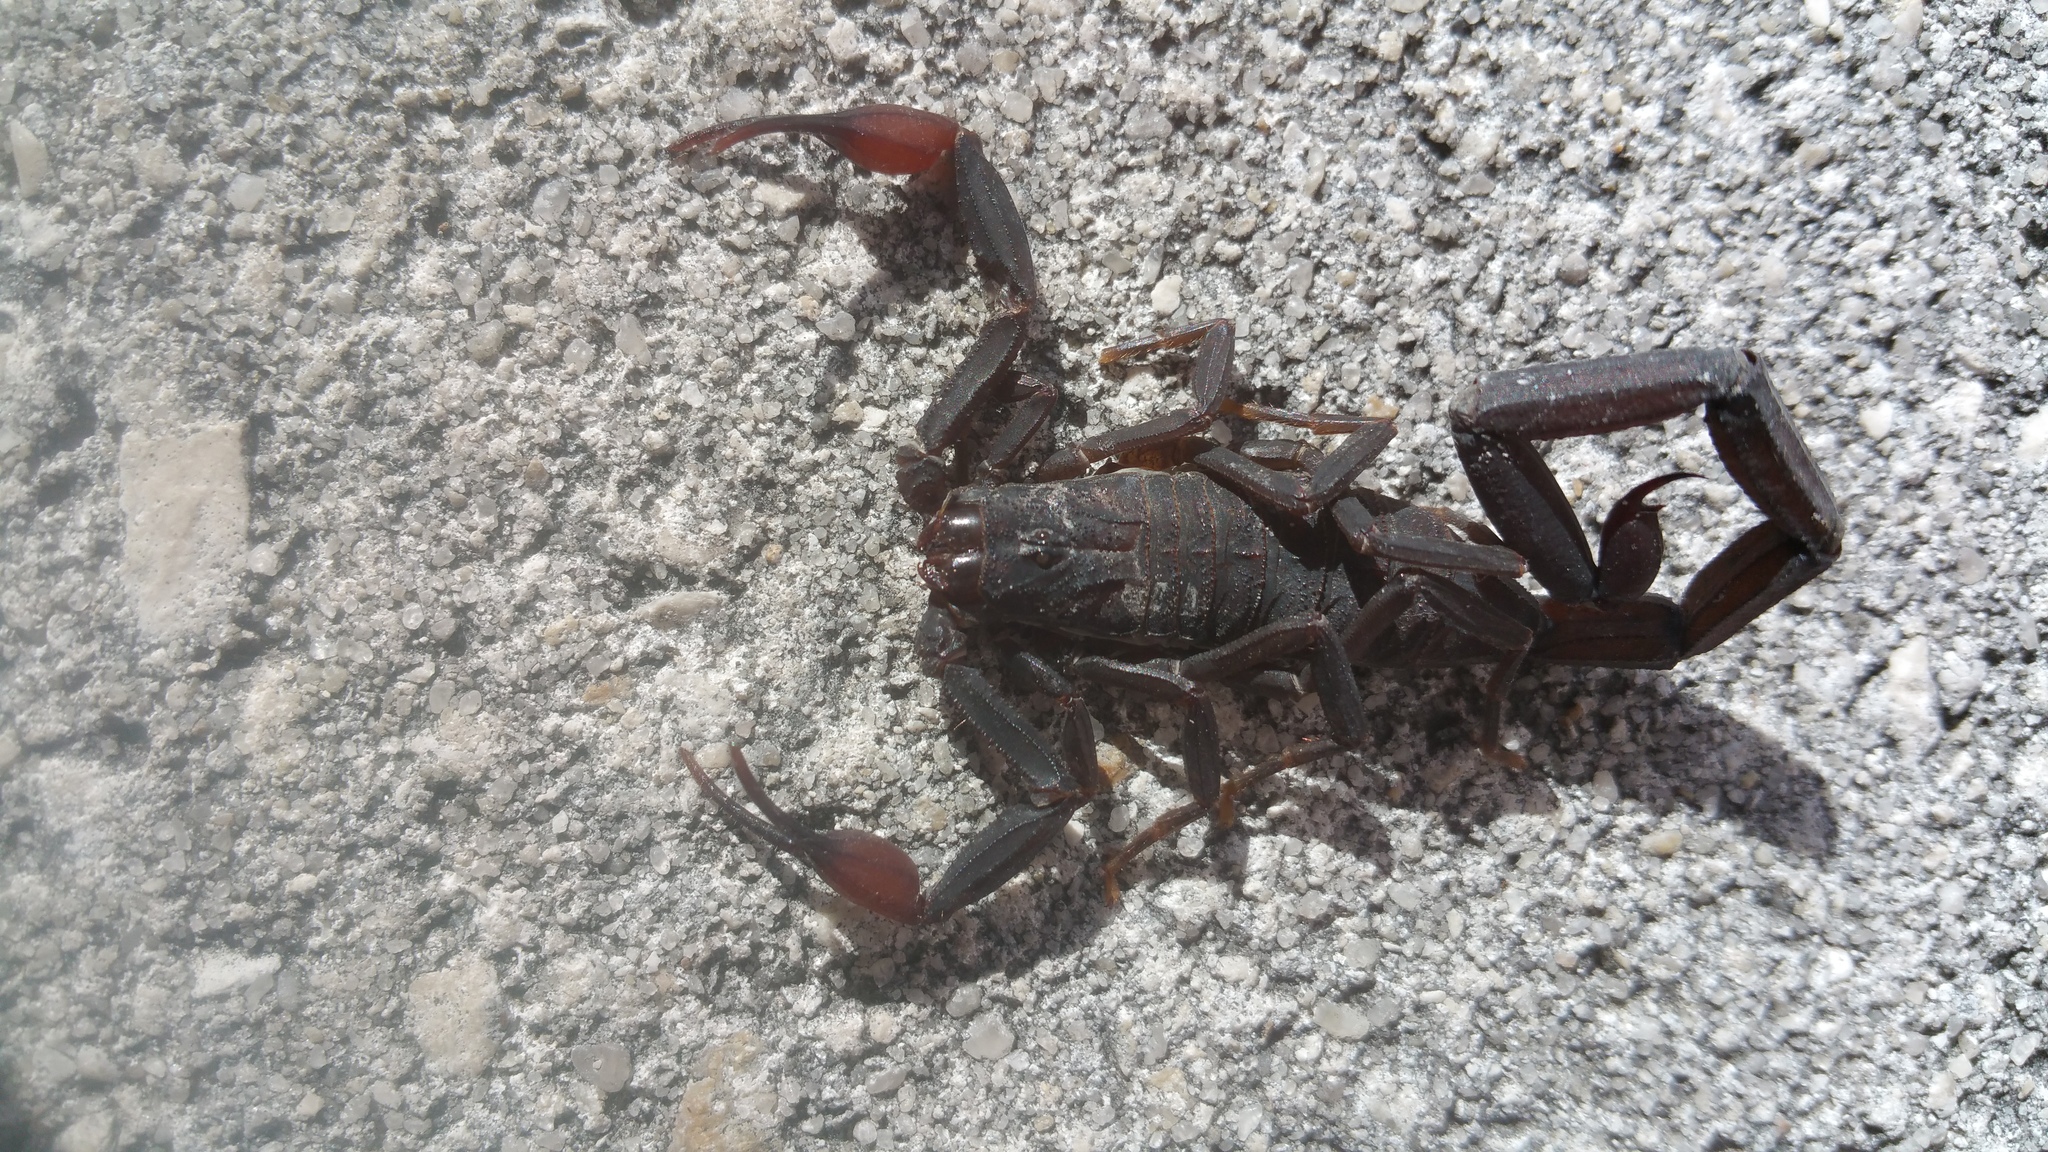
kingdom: Animalia
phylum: Arthropoda
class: Arachnida
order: Scorpiones
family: Buthidae
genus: Centruroides
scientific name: Centruroides gracilis
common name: Scorpions
